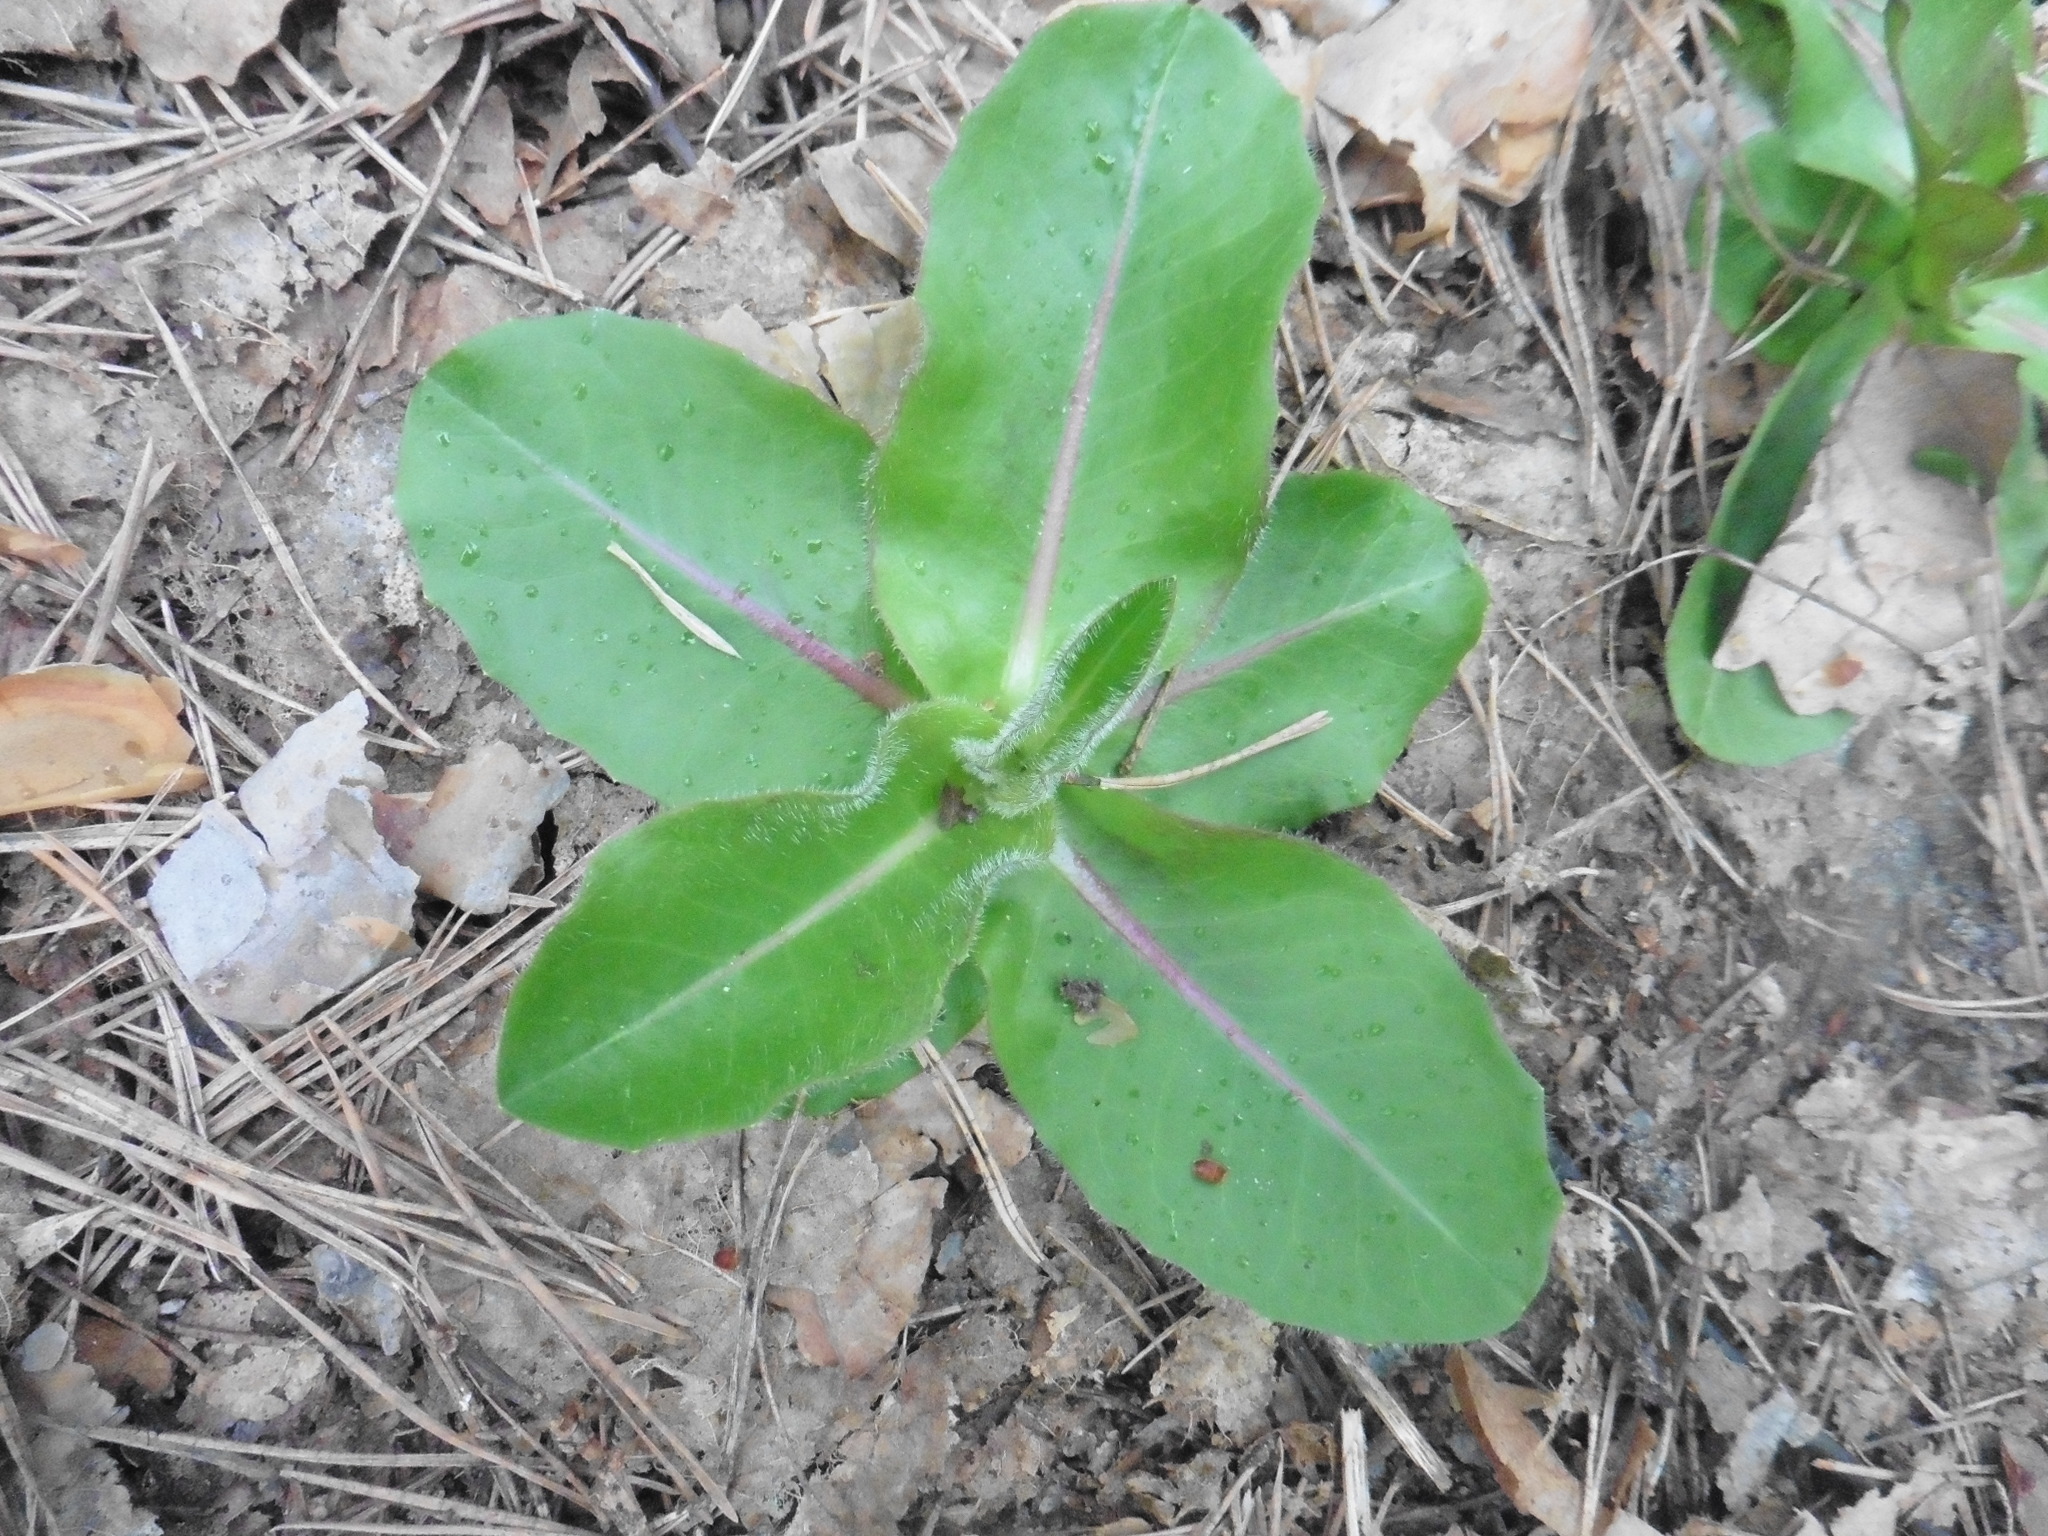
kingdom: Plantae
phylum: Tracheophyta
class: Magnoliopsida
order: Asterales
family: Asteraceae
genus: Trommsdorffia
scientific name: Trommsdorffia maculata
